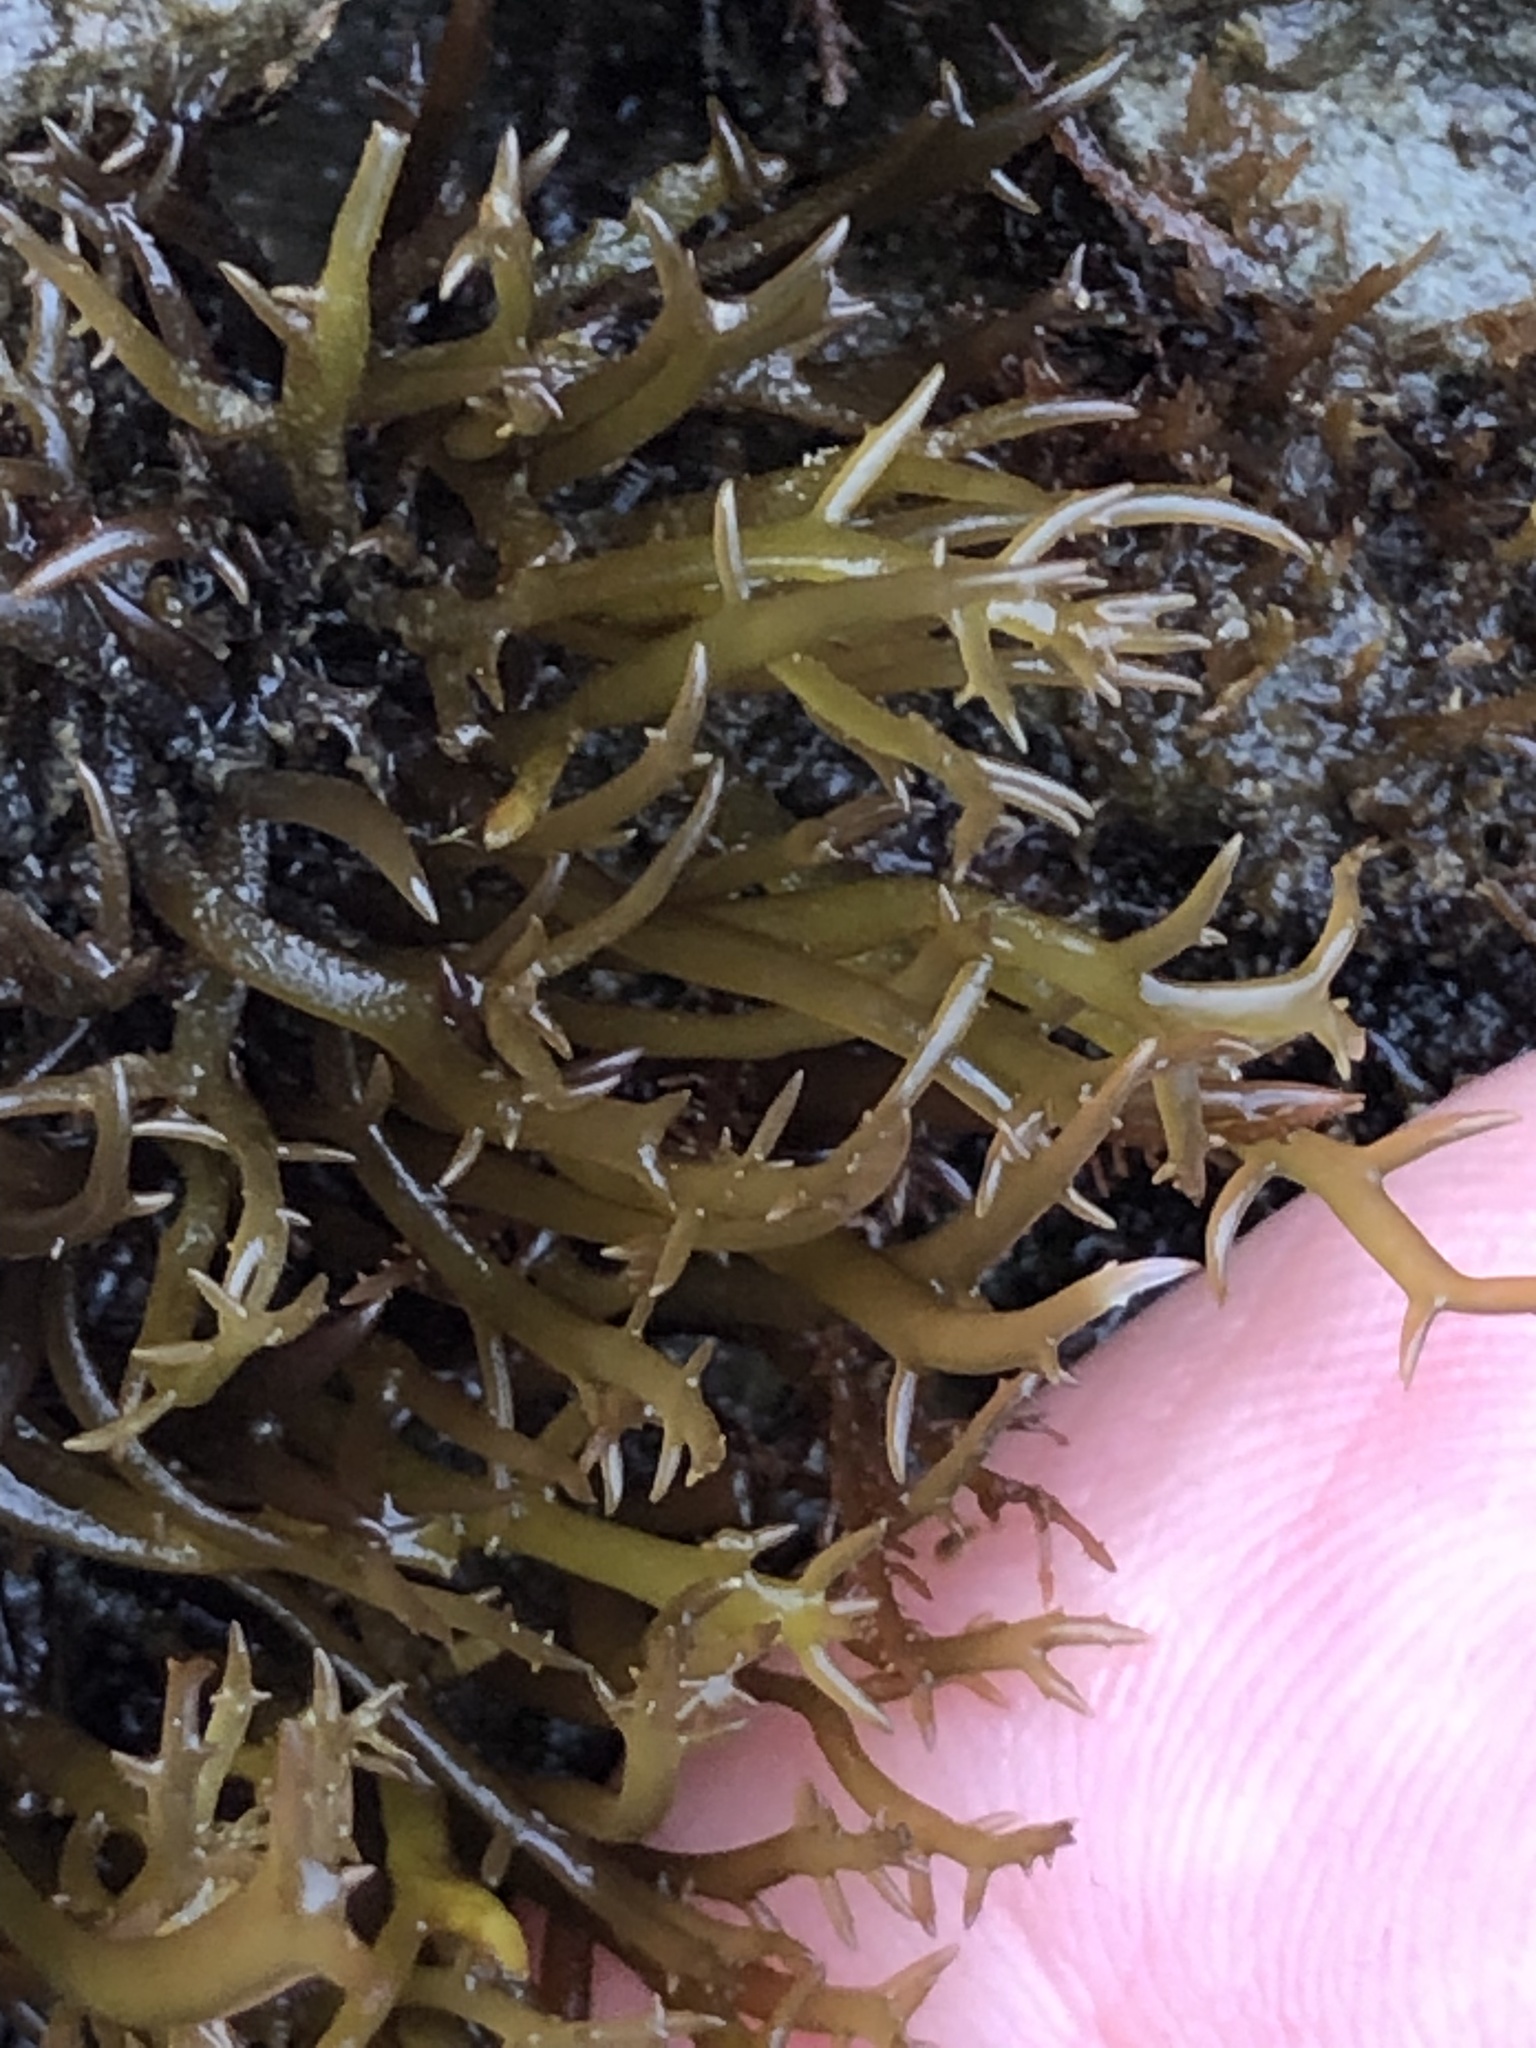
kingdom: Plantae
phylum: Rhodophyta
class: Florideophyceae
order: Gigartinales
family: Gigartinaceae
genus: Chondracanthus
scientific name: Chondracanthus canaliculatus
